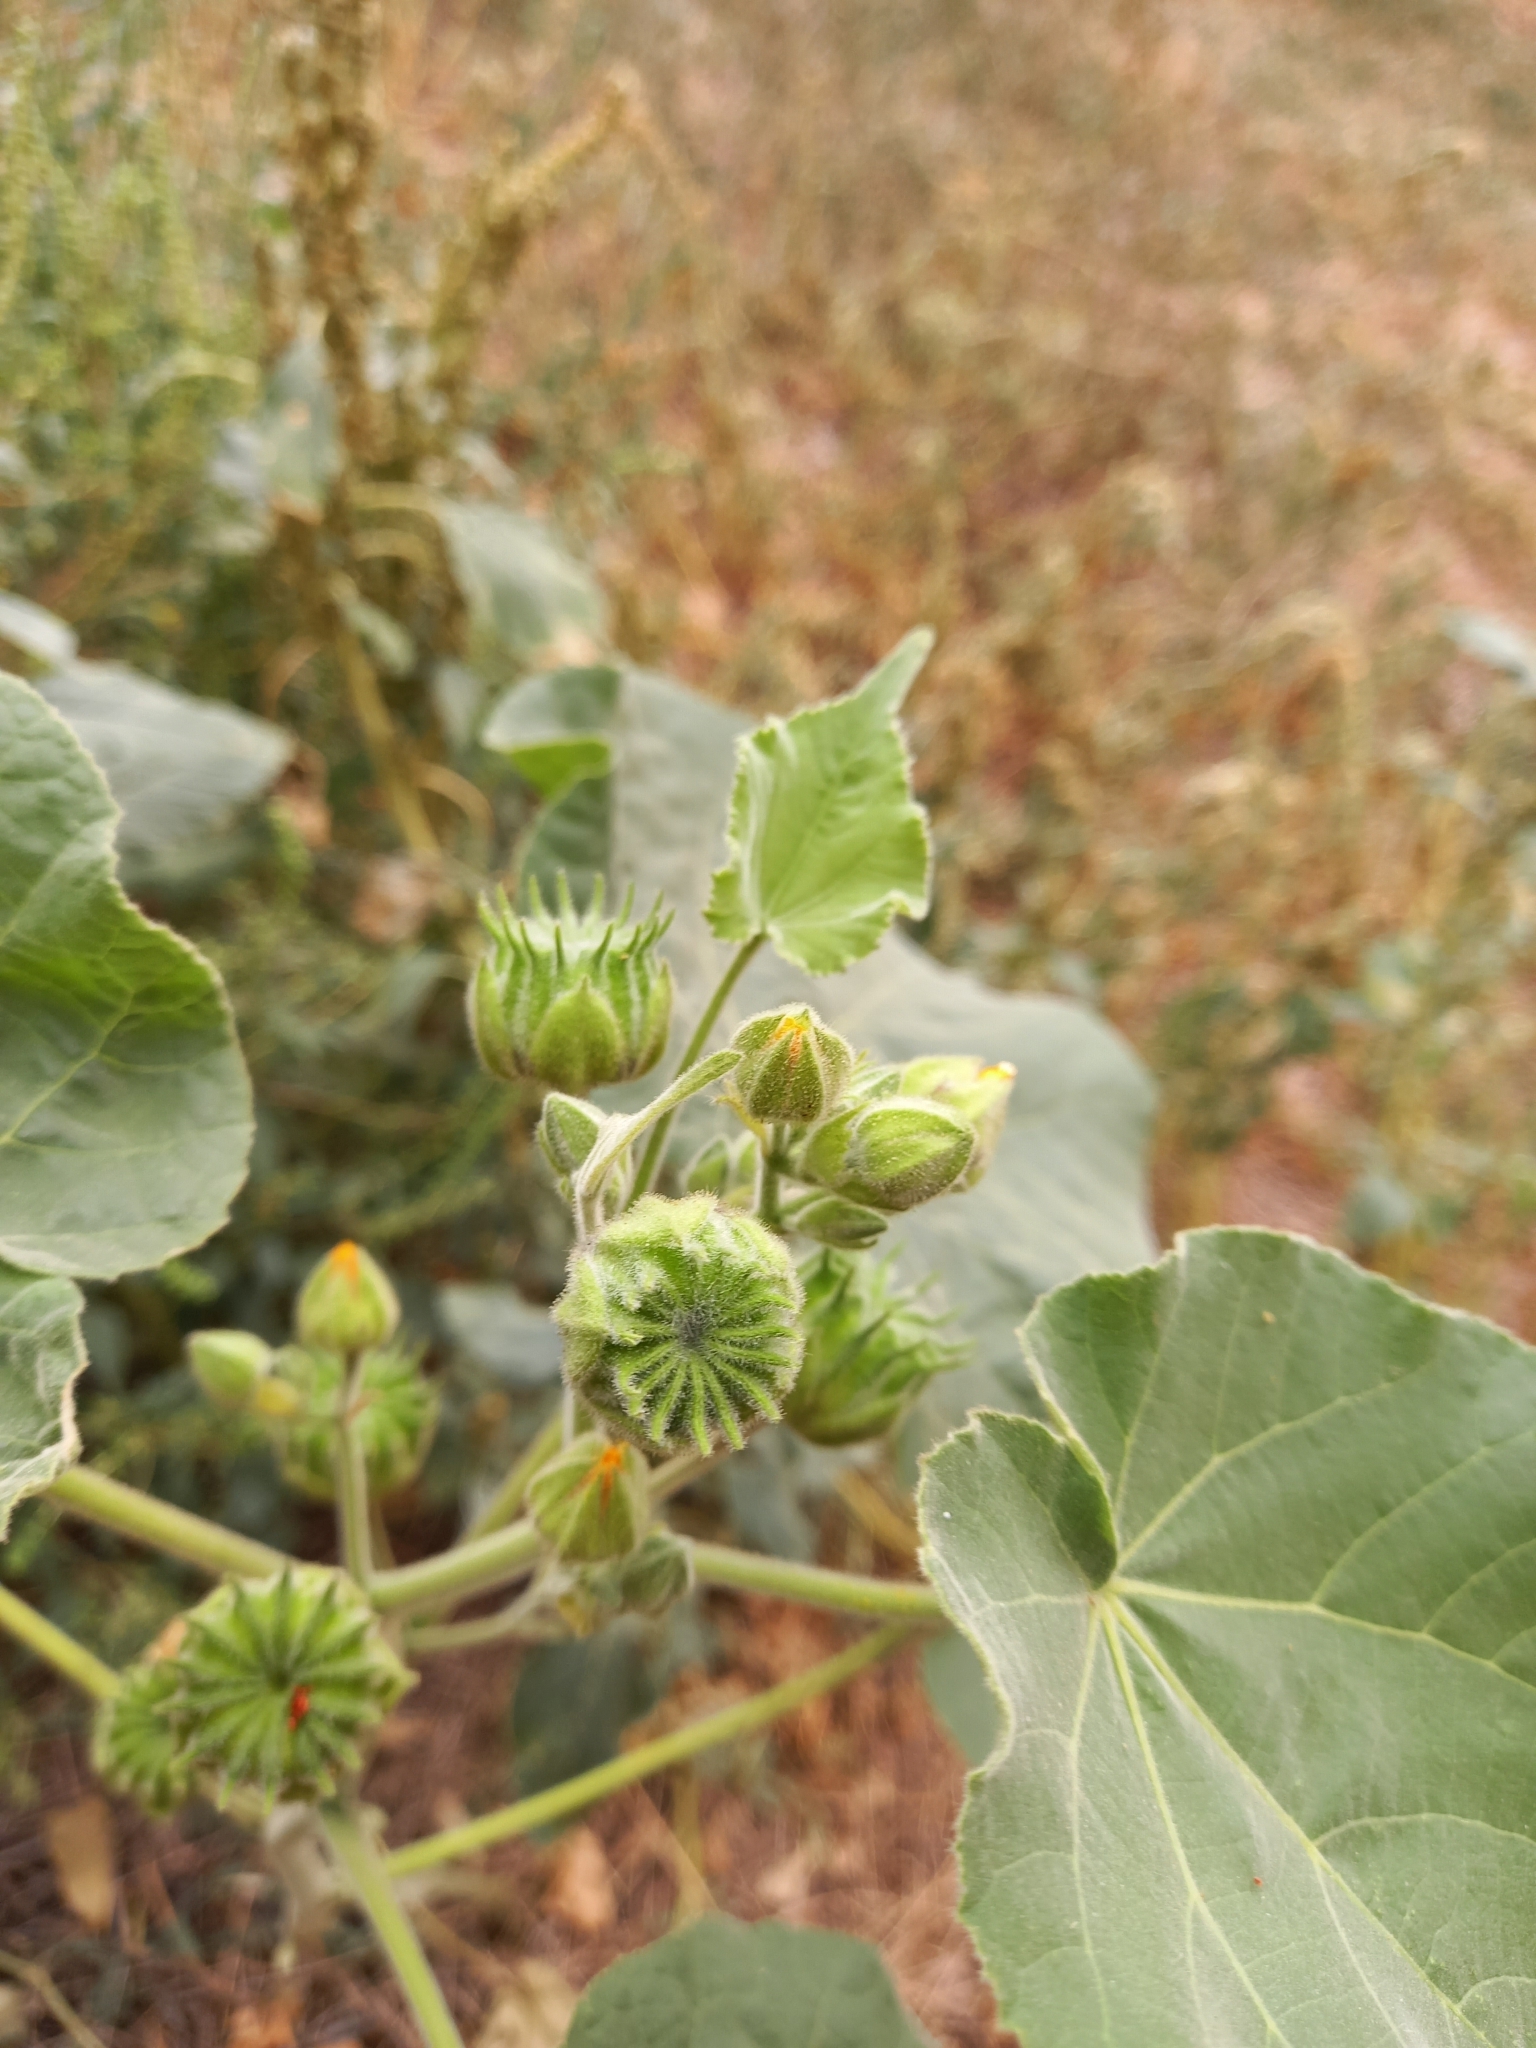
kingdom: Plantae
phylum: Tracheophyta
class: Magnoliopsida
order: Malvales
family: Malvaceae
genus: Abutilon
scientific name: Abutilon theophrasti
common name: Velvetleaf
